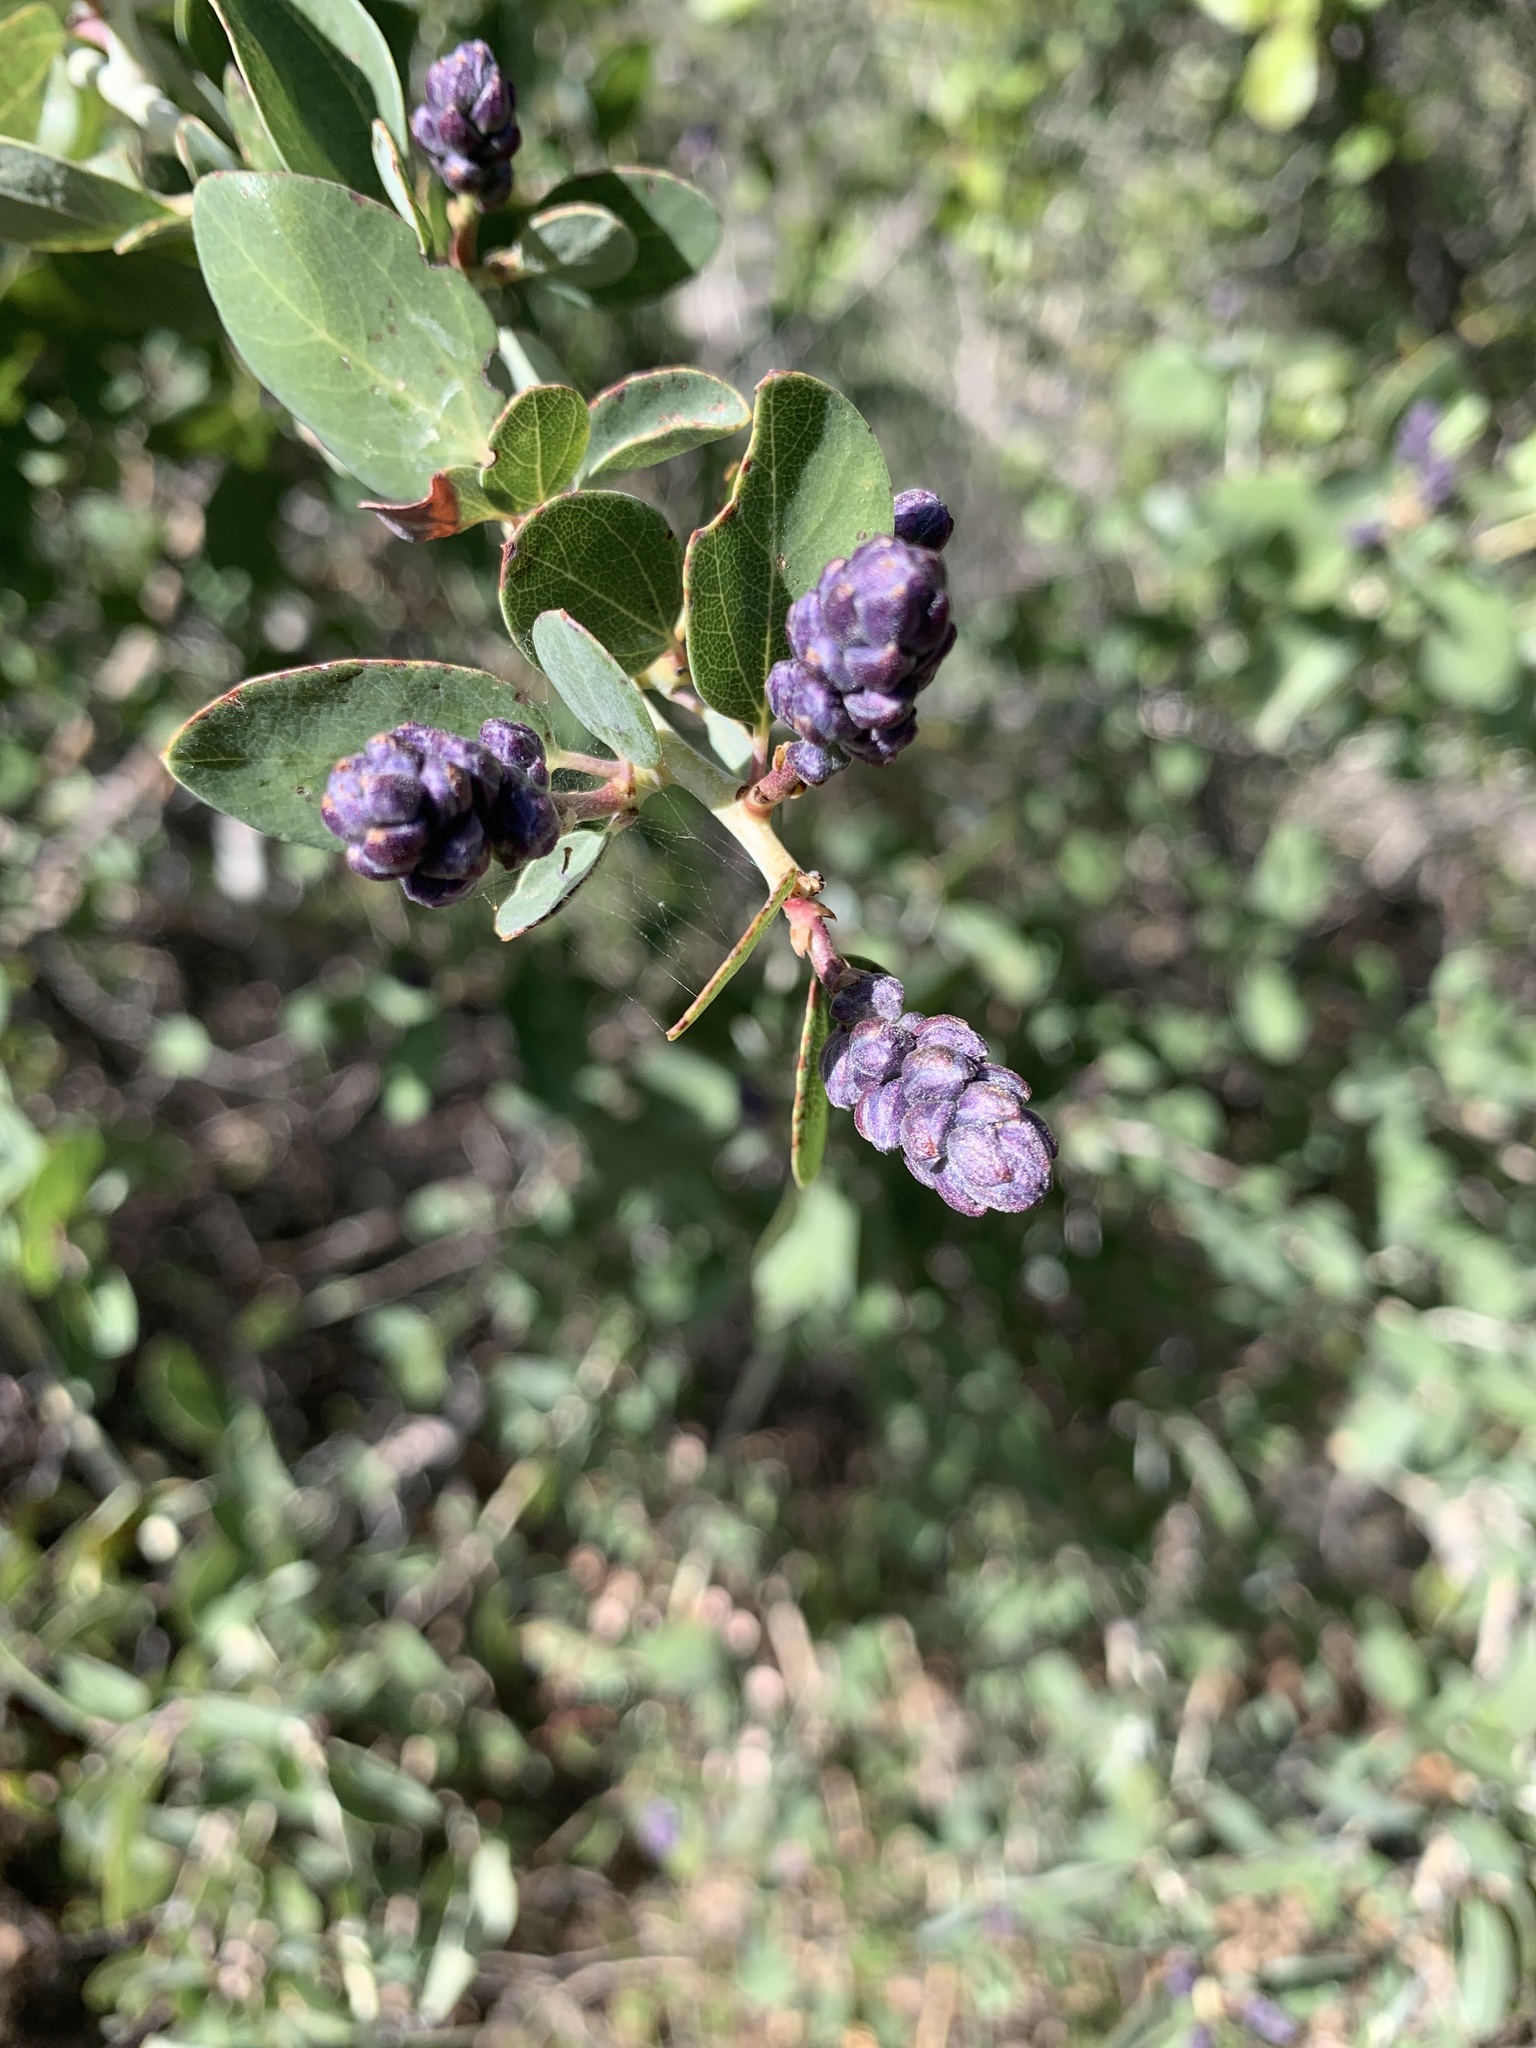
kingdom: Plantae
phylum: Tracheophyta
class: Magnoliopsida
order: Rosales
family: Rhamnaceae
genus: Ceanothus
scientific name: Ceanothus leucodermis
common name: Chaparral whitethorn
